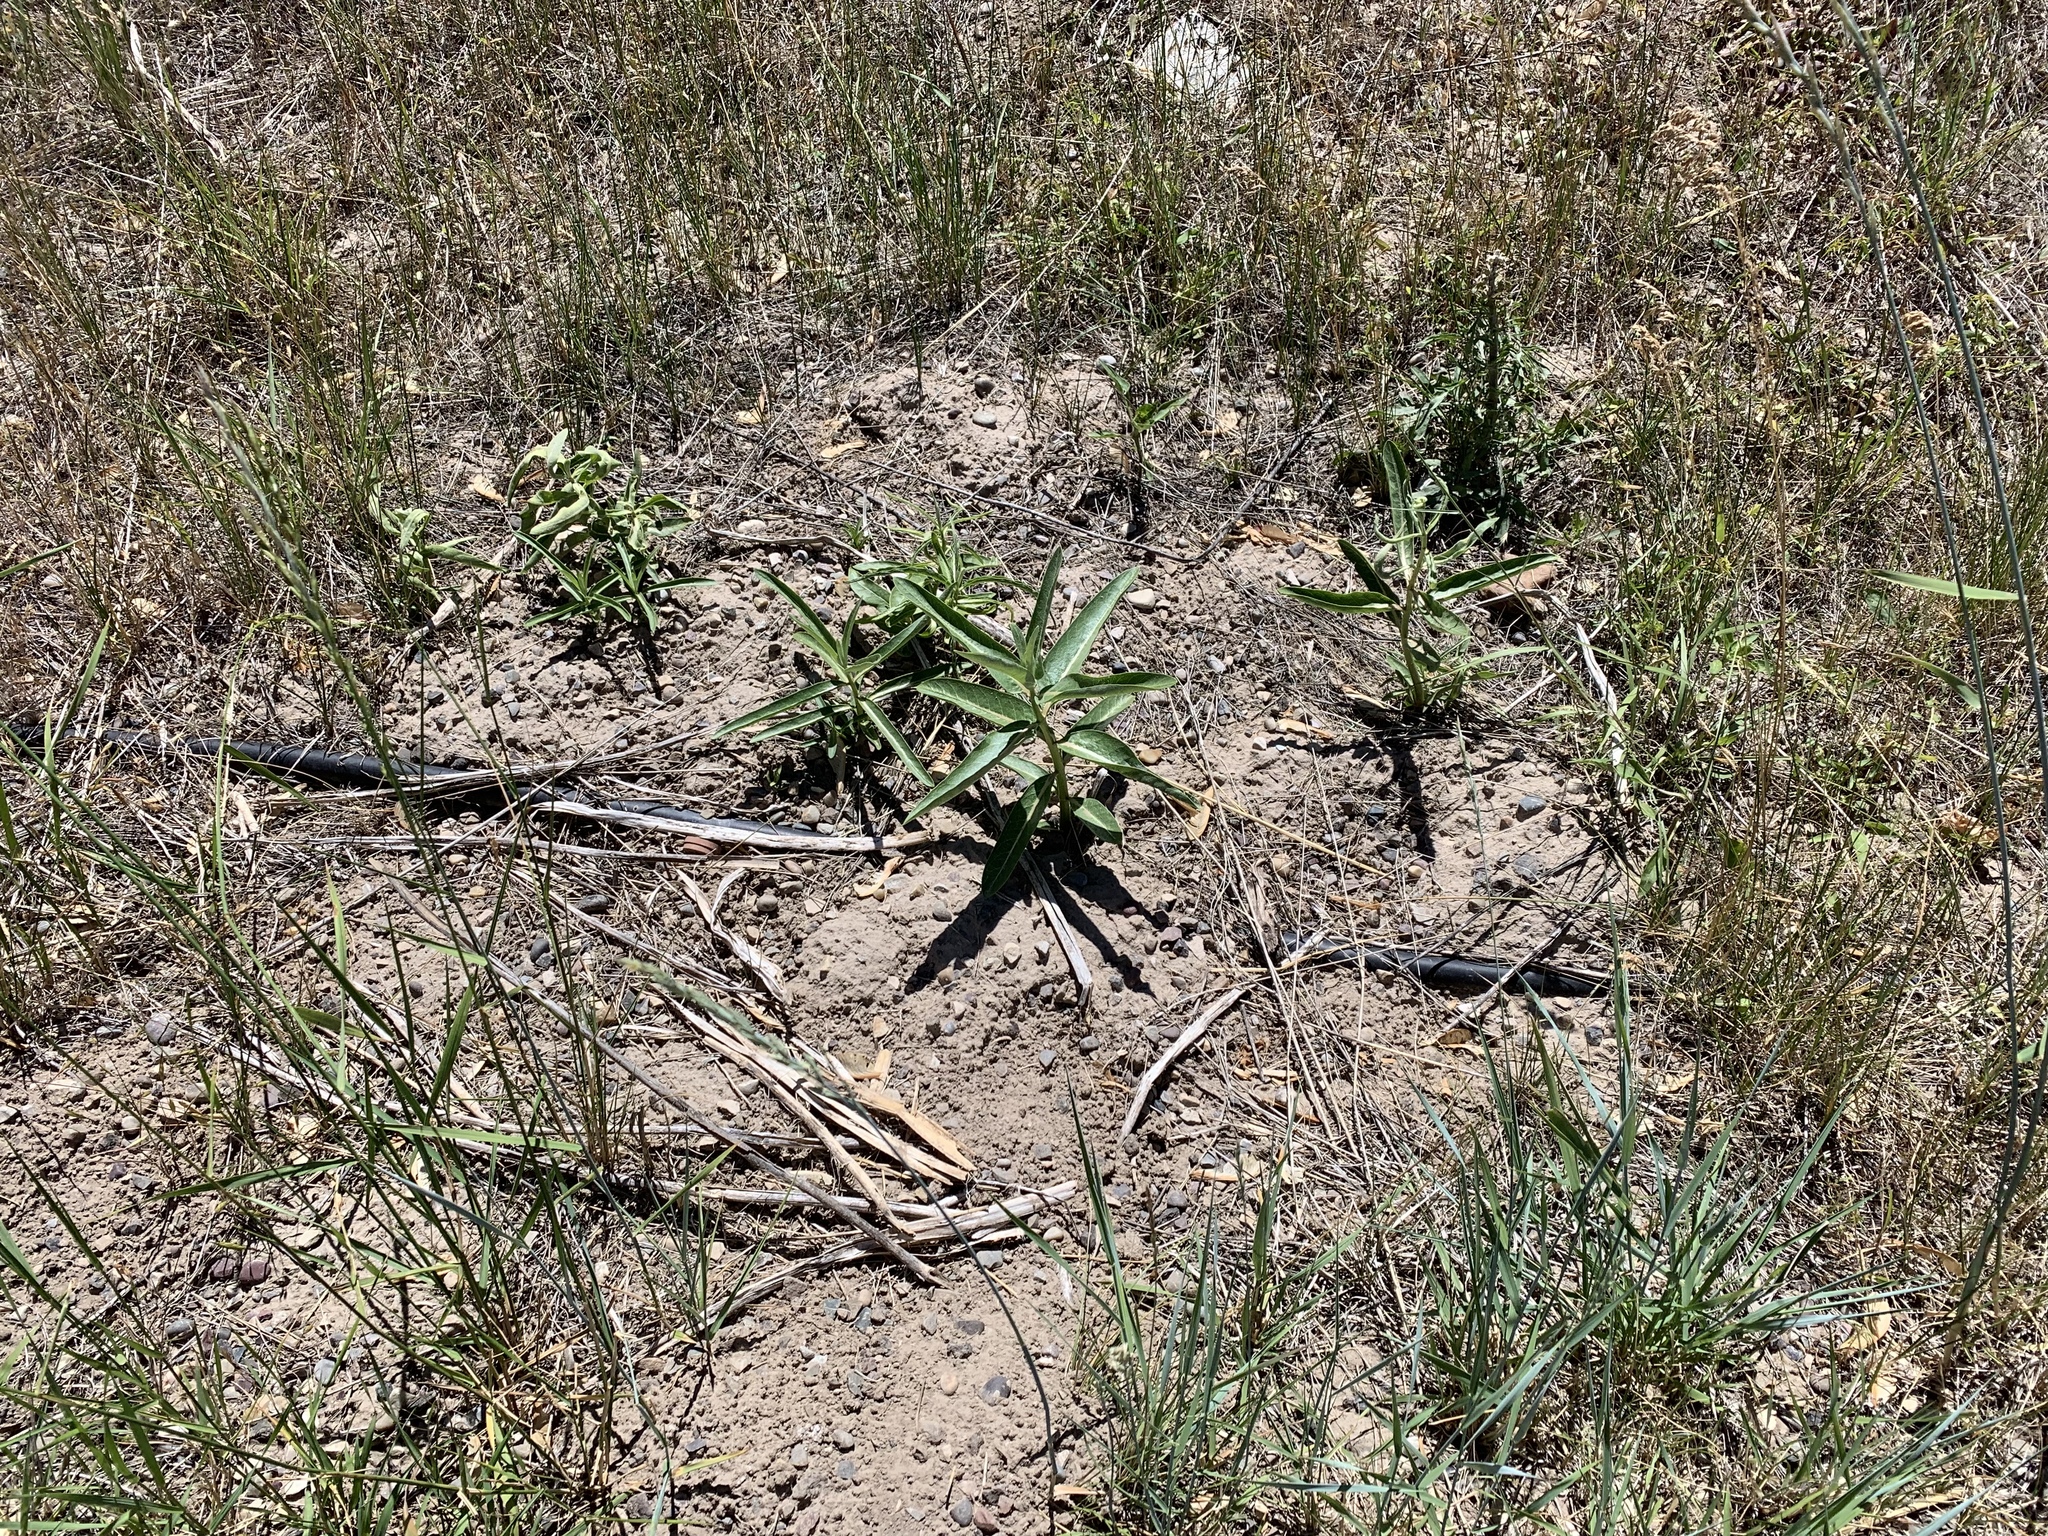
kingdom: Plantae
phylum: Tracheophyta
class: Magnoliopsida
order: Gentianales
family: Apocynaceae
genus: Asclepias
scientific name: Asclepias speciosa
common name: Showy milkweed
